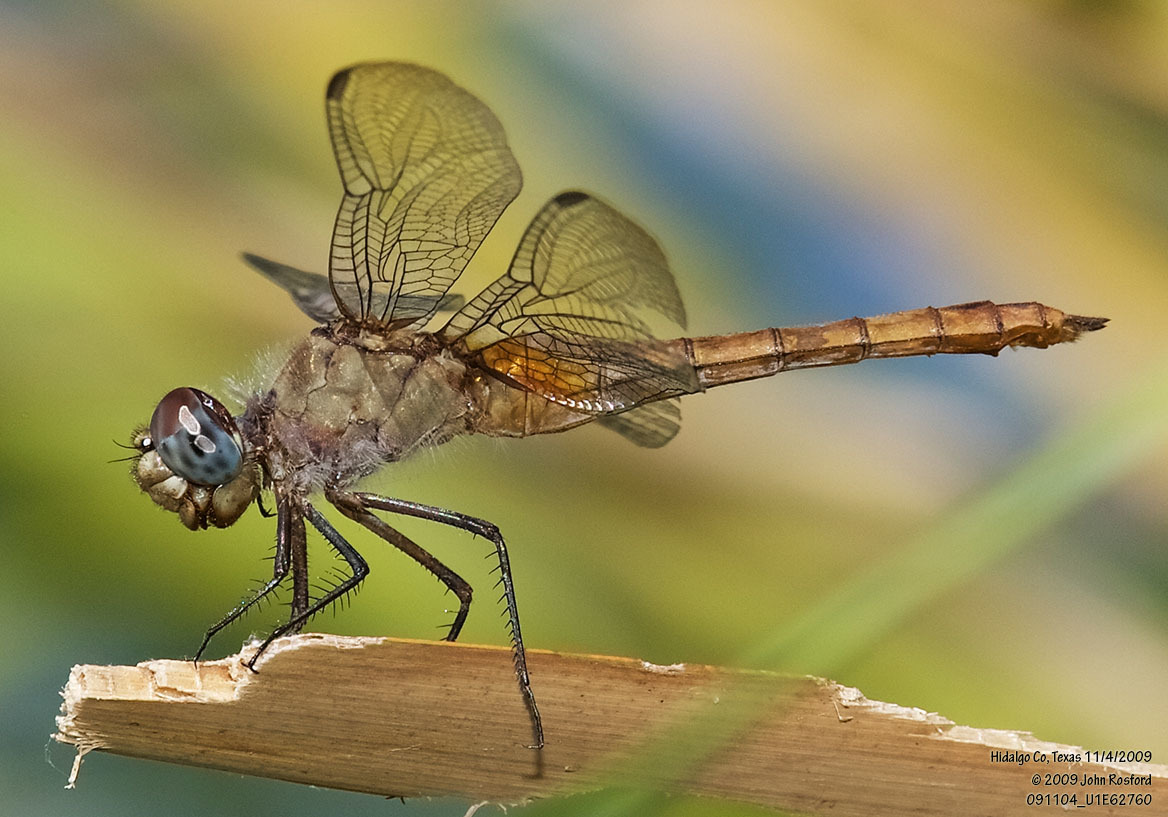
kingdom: Animalia
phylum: Arthropoda
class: Insecta
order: Odonata
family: Libellulidae
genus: Brachymesia
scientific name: Brachymesia furcata
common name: Red-taled pennant
